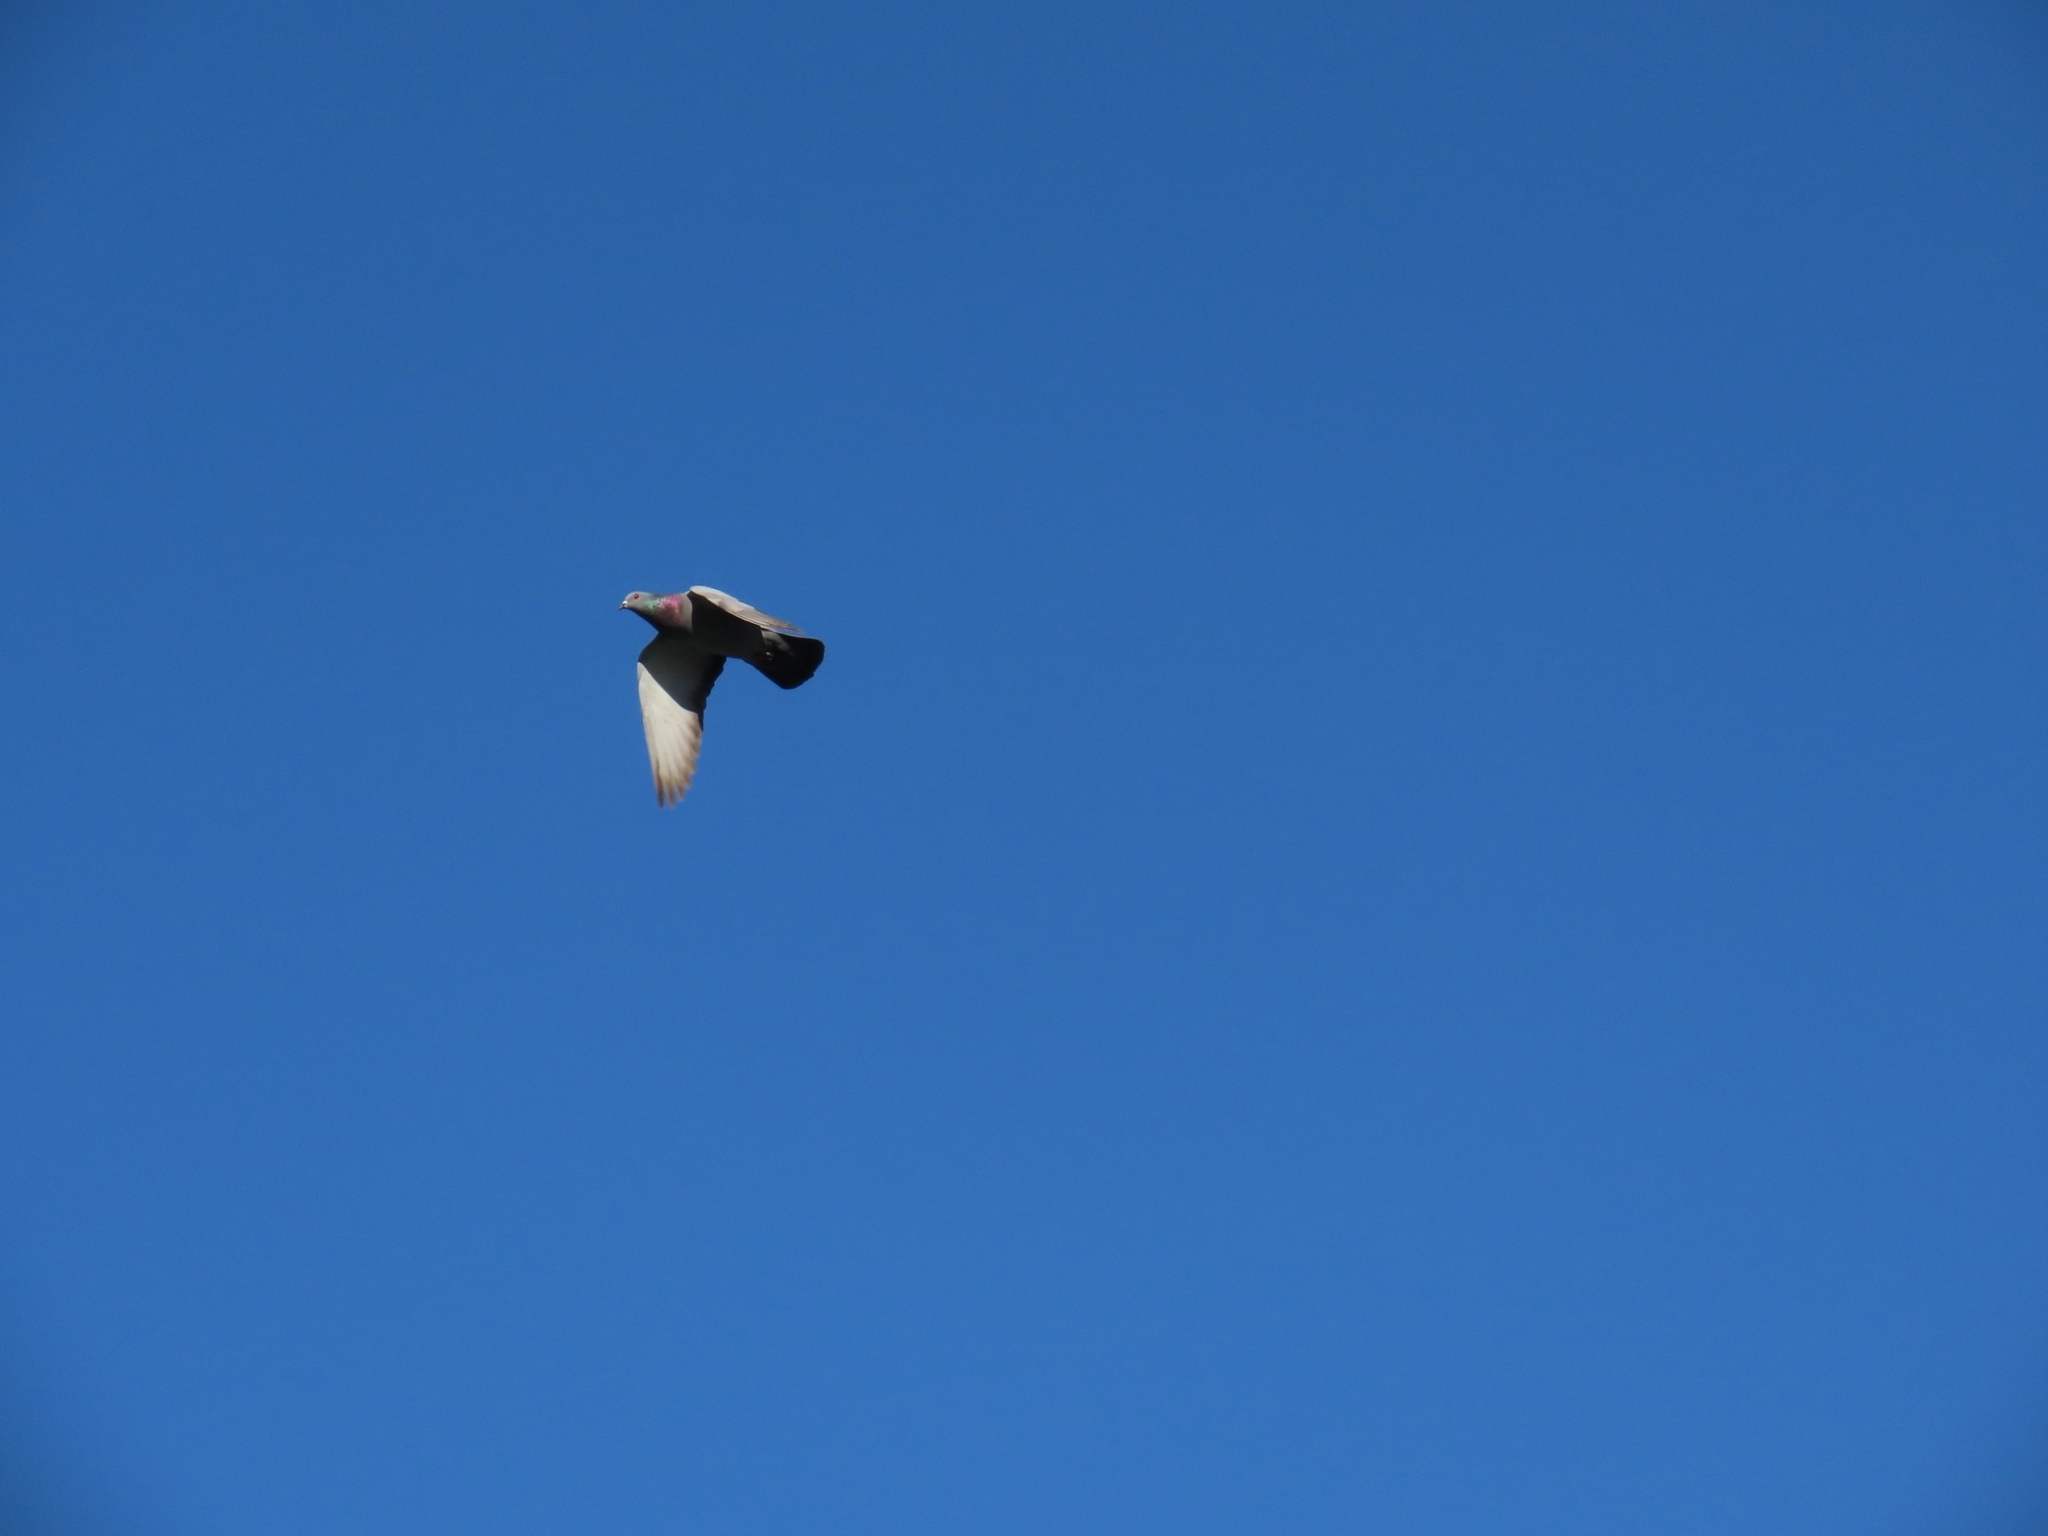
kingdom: Animalia
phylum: Chordata
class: Aves
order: Columbiformes
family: Columbidae
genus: Columba
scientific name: Columba livia
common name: Rock pigeon
